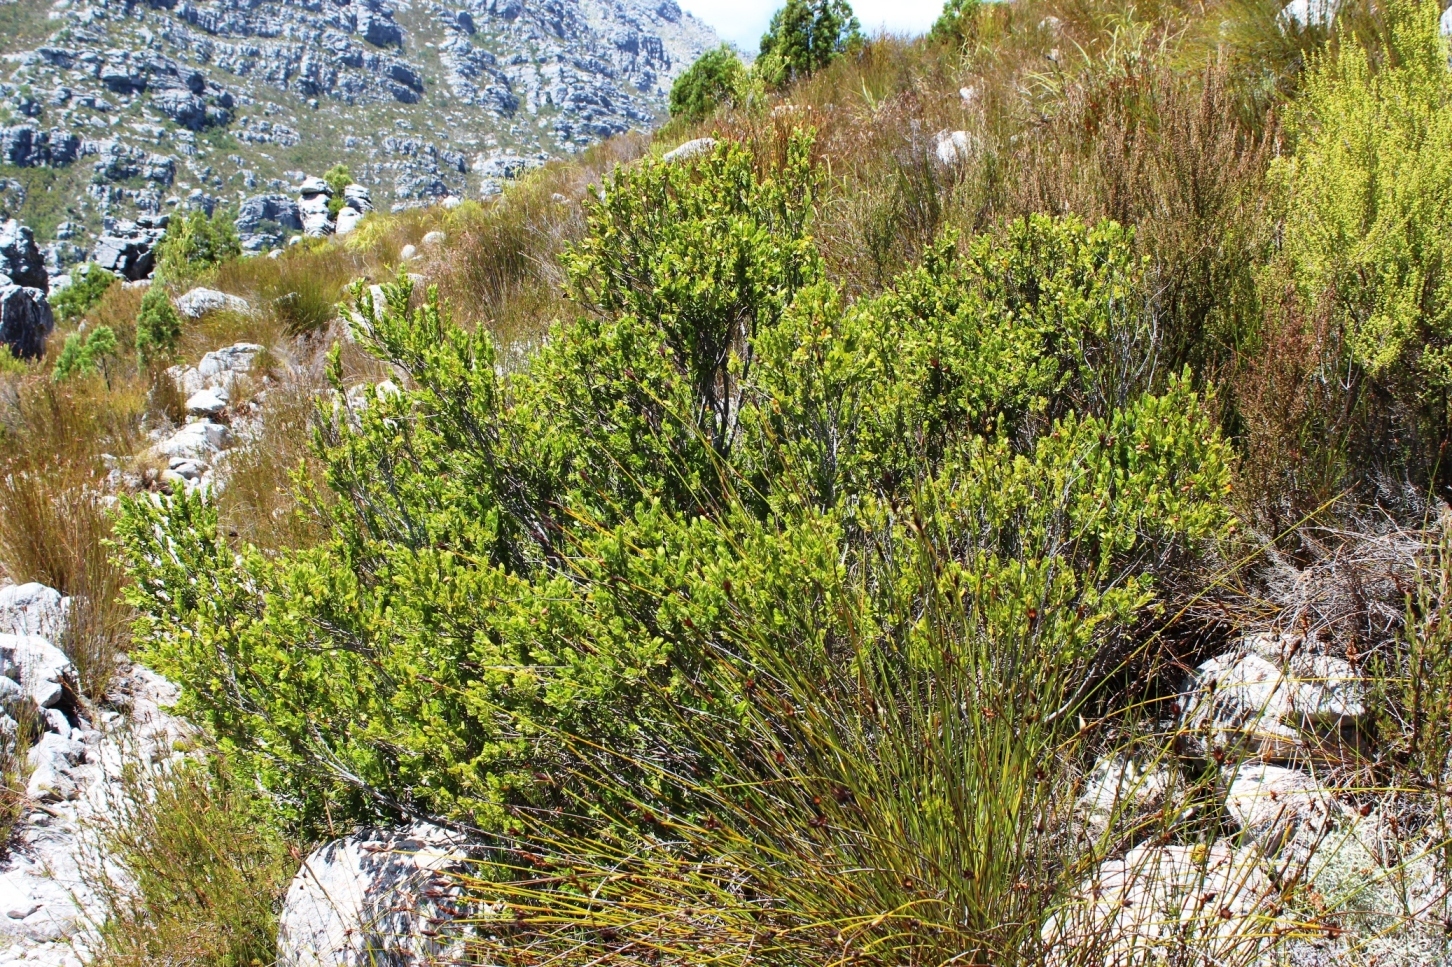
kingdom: Plantae
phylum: Tracheophyta
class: Magnoliopsida
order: Ericales
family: Ebenaceae
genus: Diospyros
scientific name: Diospyros glabra
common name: Fynbos star apple
